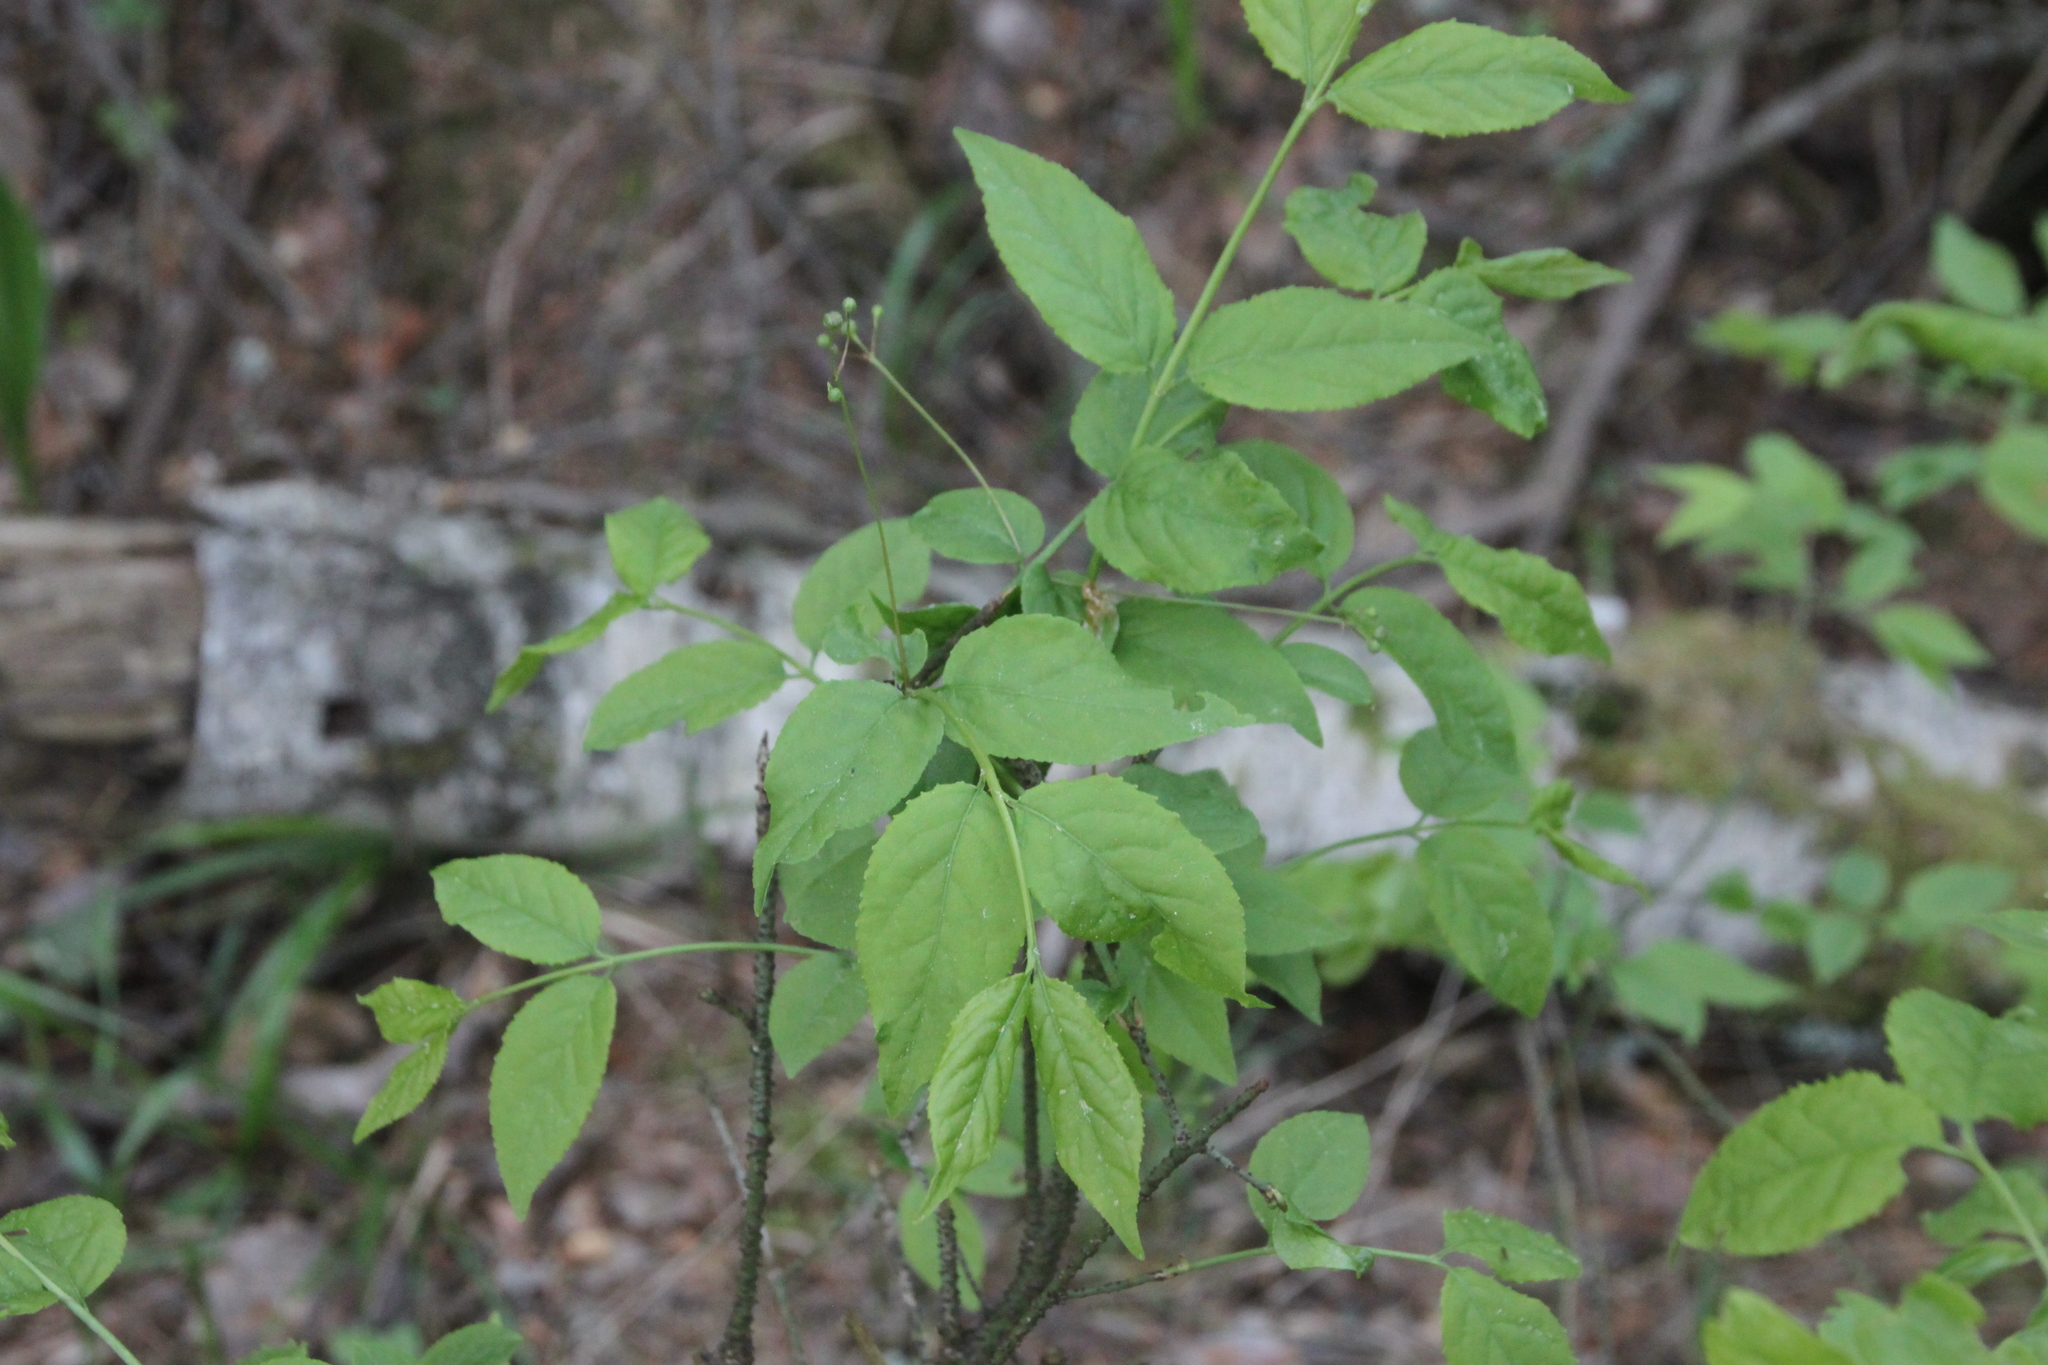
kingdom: Plantae
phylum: Tracheophyta
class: Magnoliopsida
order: Celastrales
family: Celastraceae
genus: Euonymus
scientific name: Euonymus verrucosus
